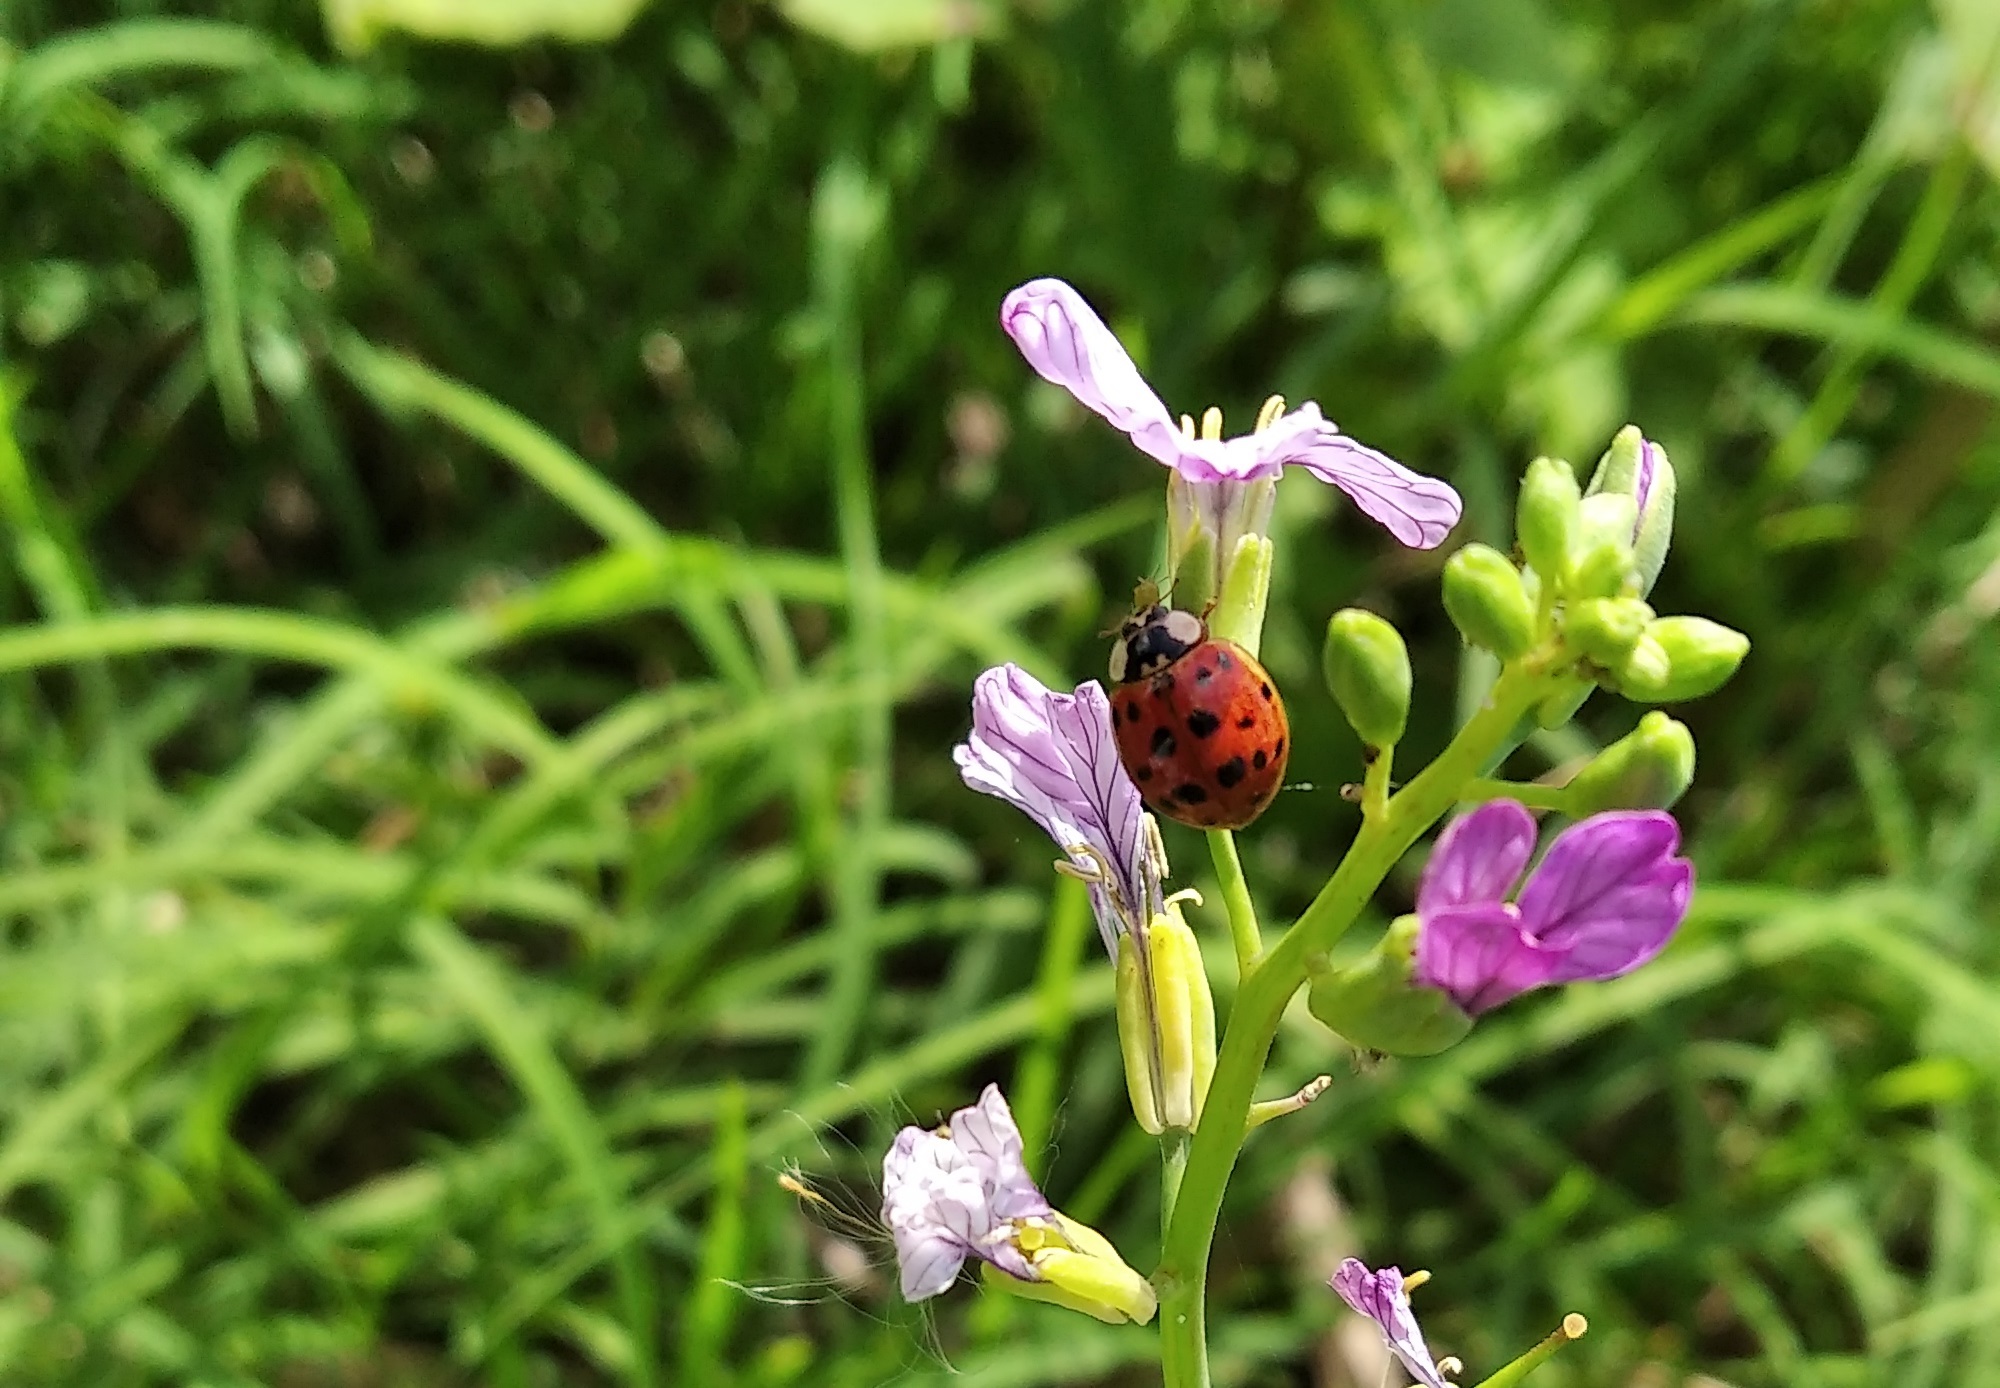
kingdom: Animalia
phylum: Arthropoda
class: Insecta
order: Coleoptera
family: Coccinellidae
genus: Harmonia
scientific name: Harmonia axyridis
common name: Harlequin ladybird
